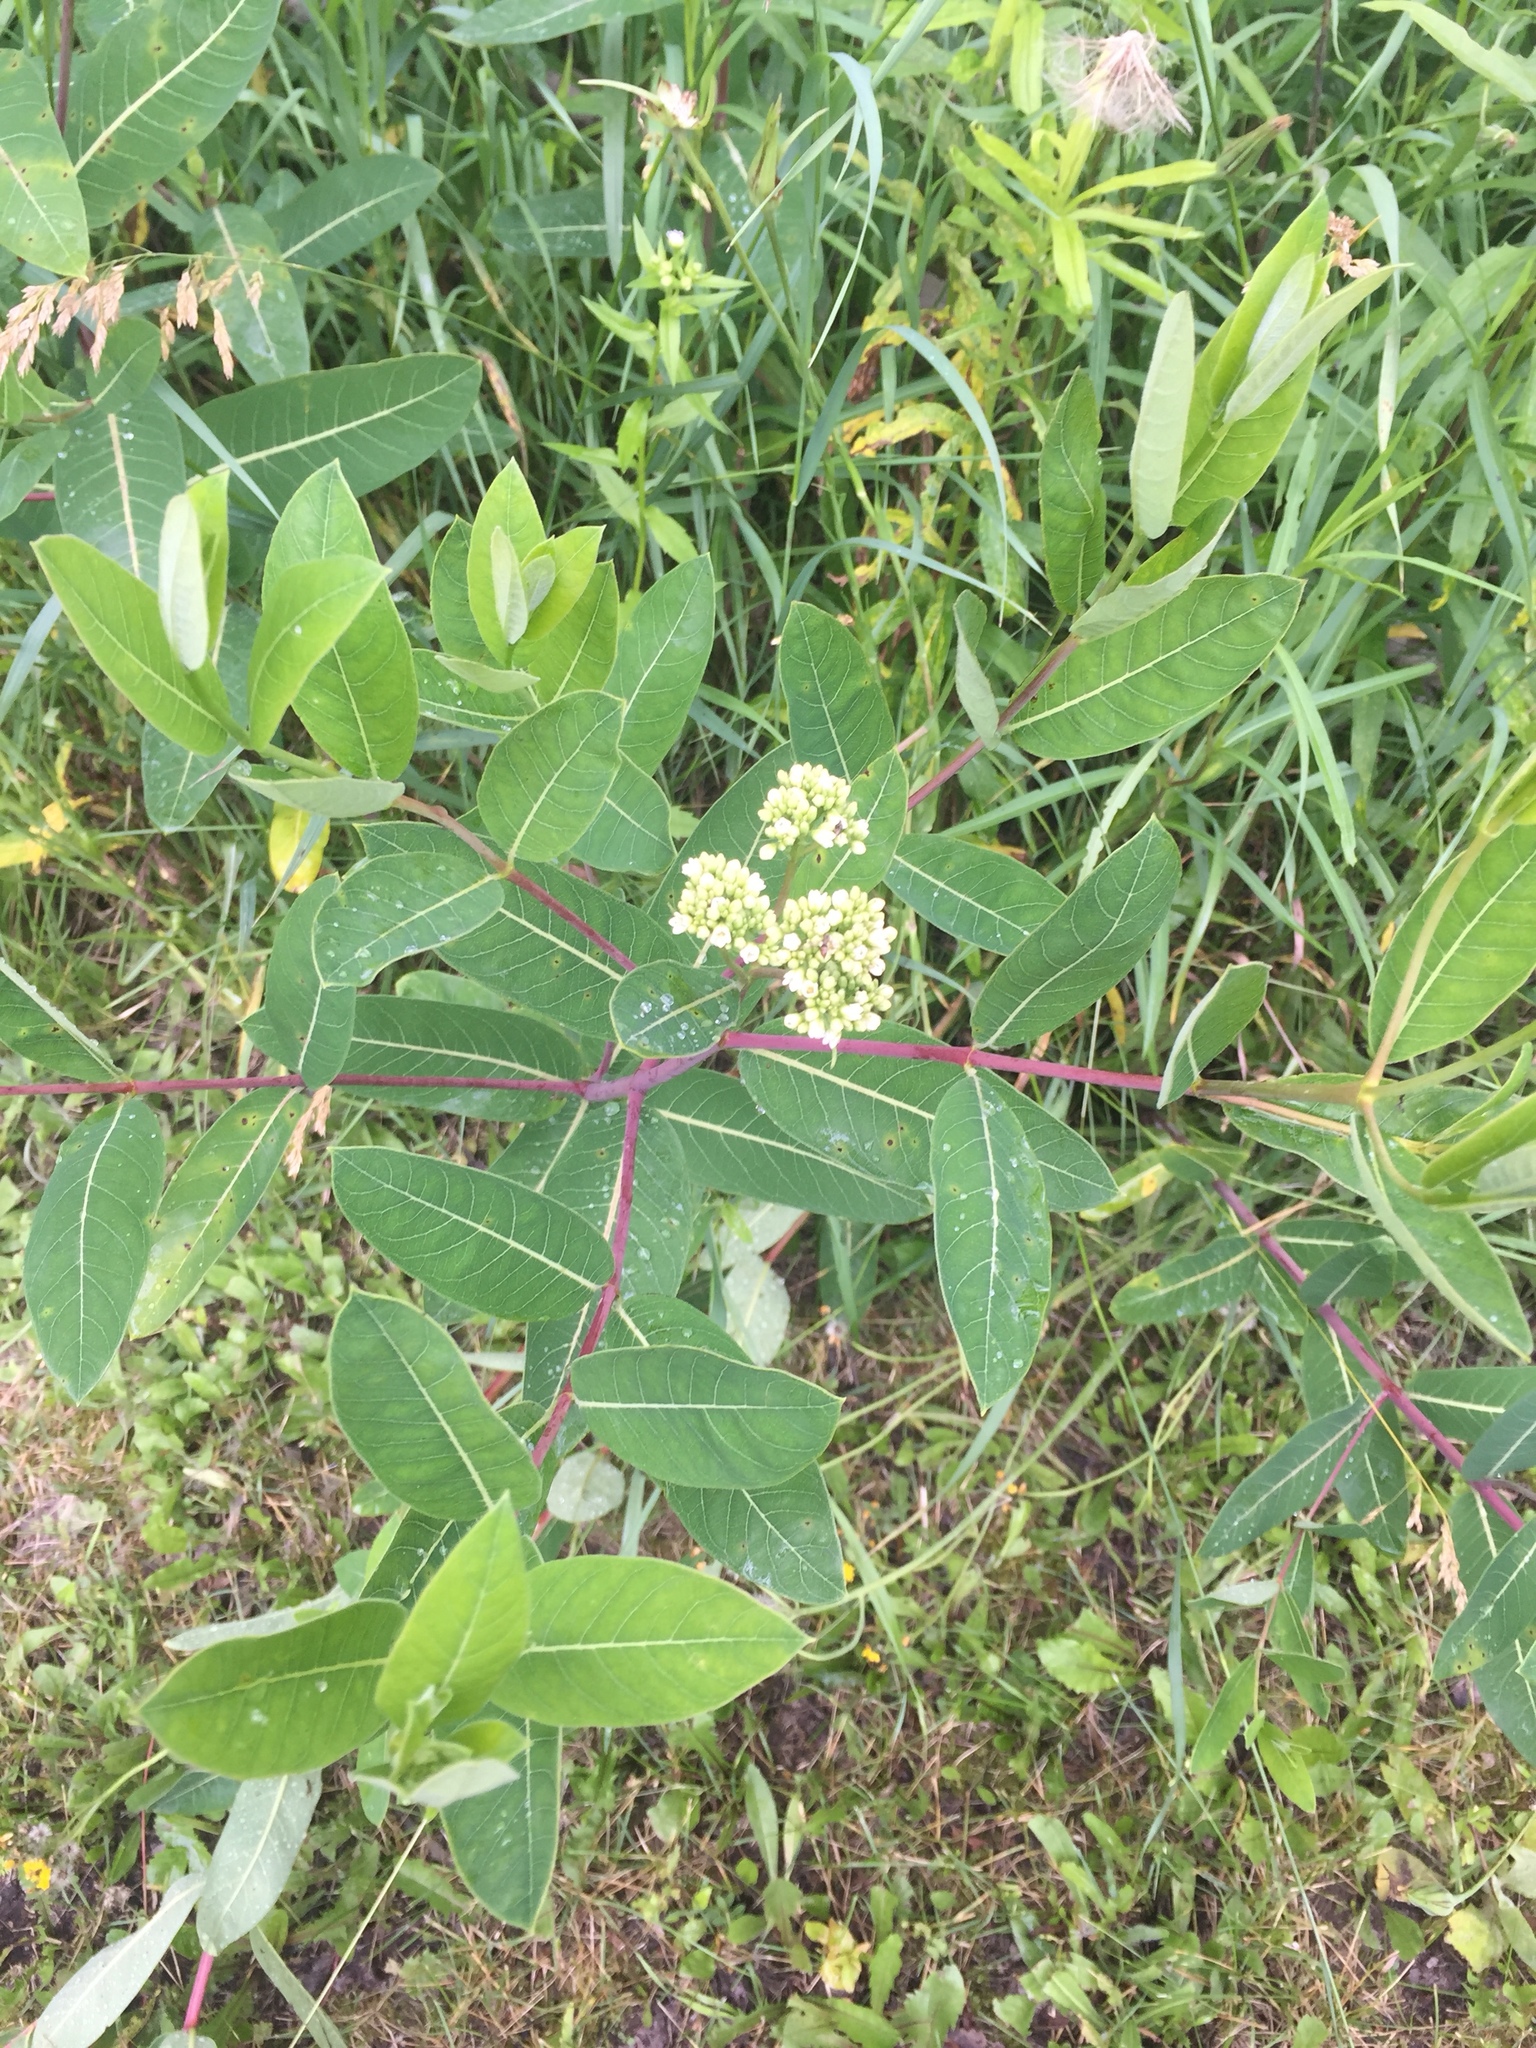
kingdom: Plantae
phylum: Tracheophyta
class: Magnoliopsida
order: Gentianales
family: Apocynaceae
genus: Apocynum
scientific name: Apocynum cannabinum
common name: Hemp dogbane
